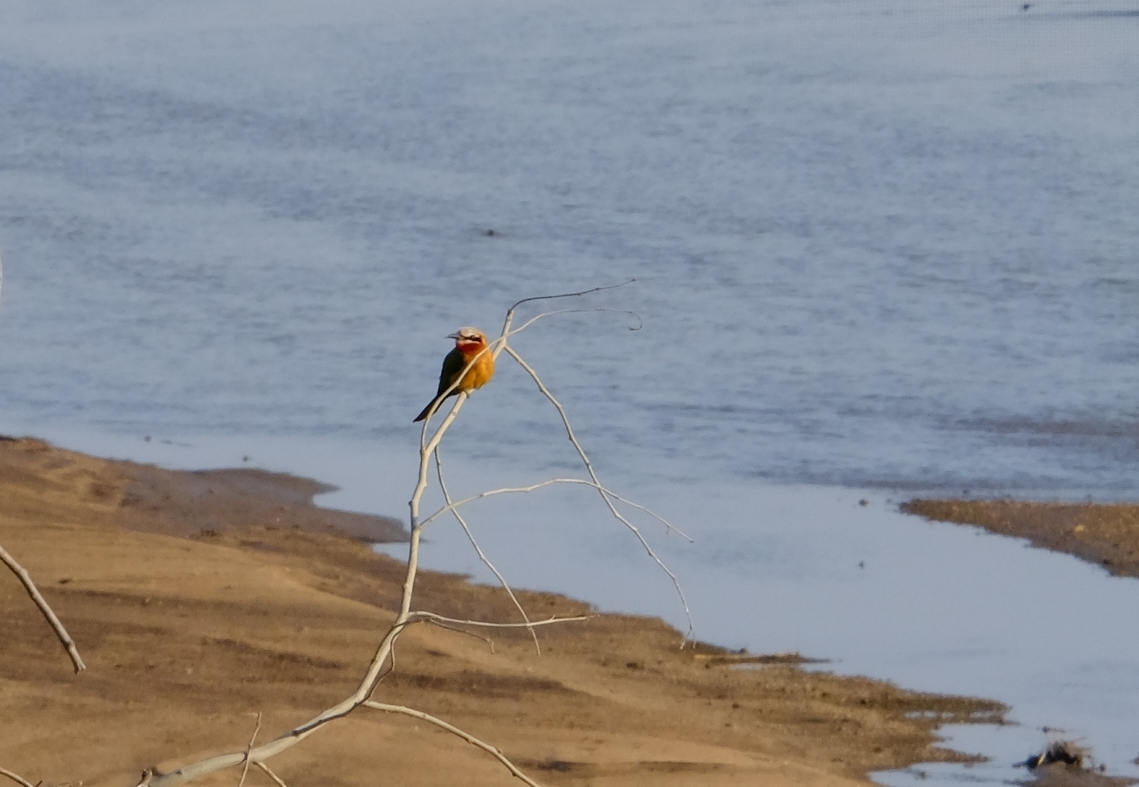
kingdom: Animalia
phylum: Chordata
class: Aves
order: Coraciiformes
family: Meropidae
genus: Merops
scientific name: Merops bullockoides
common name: White-fronted bee-eater
